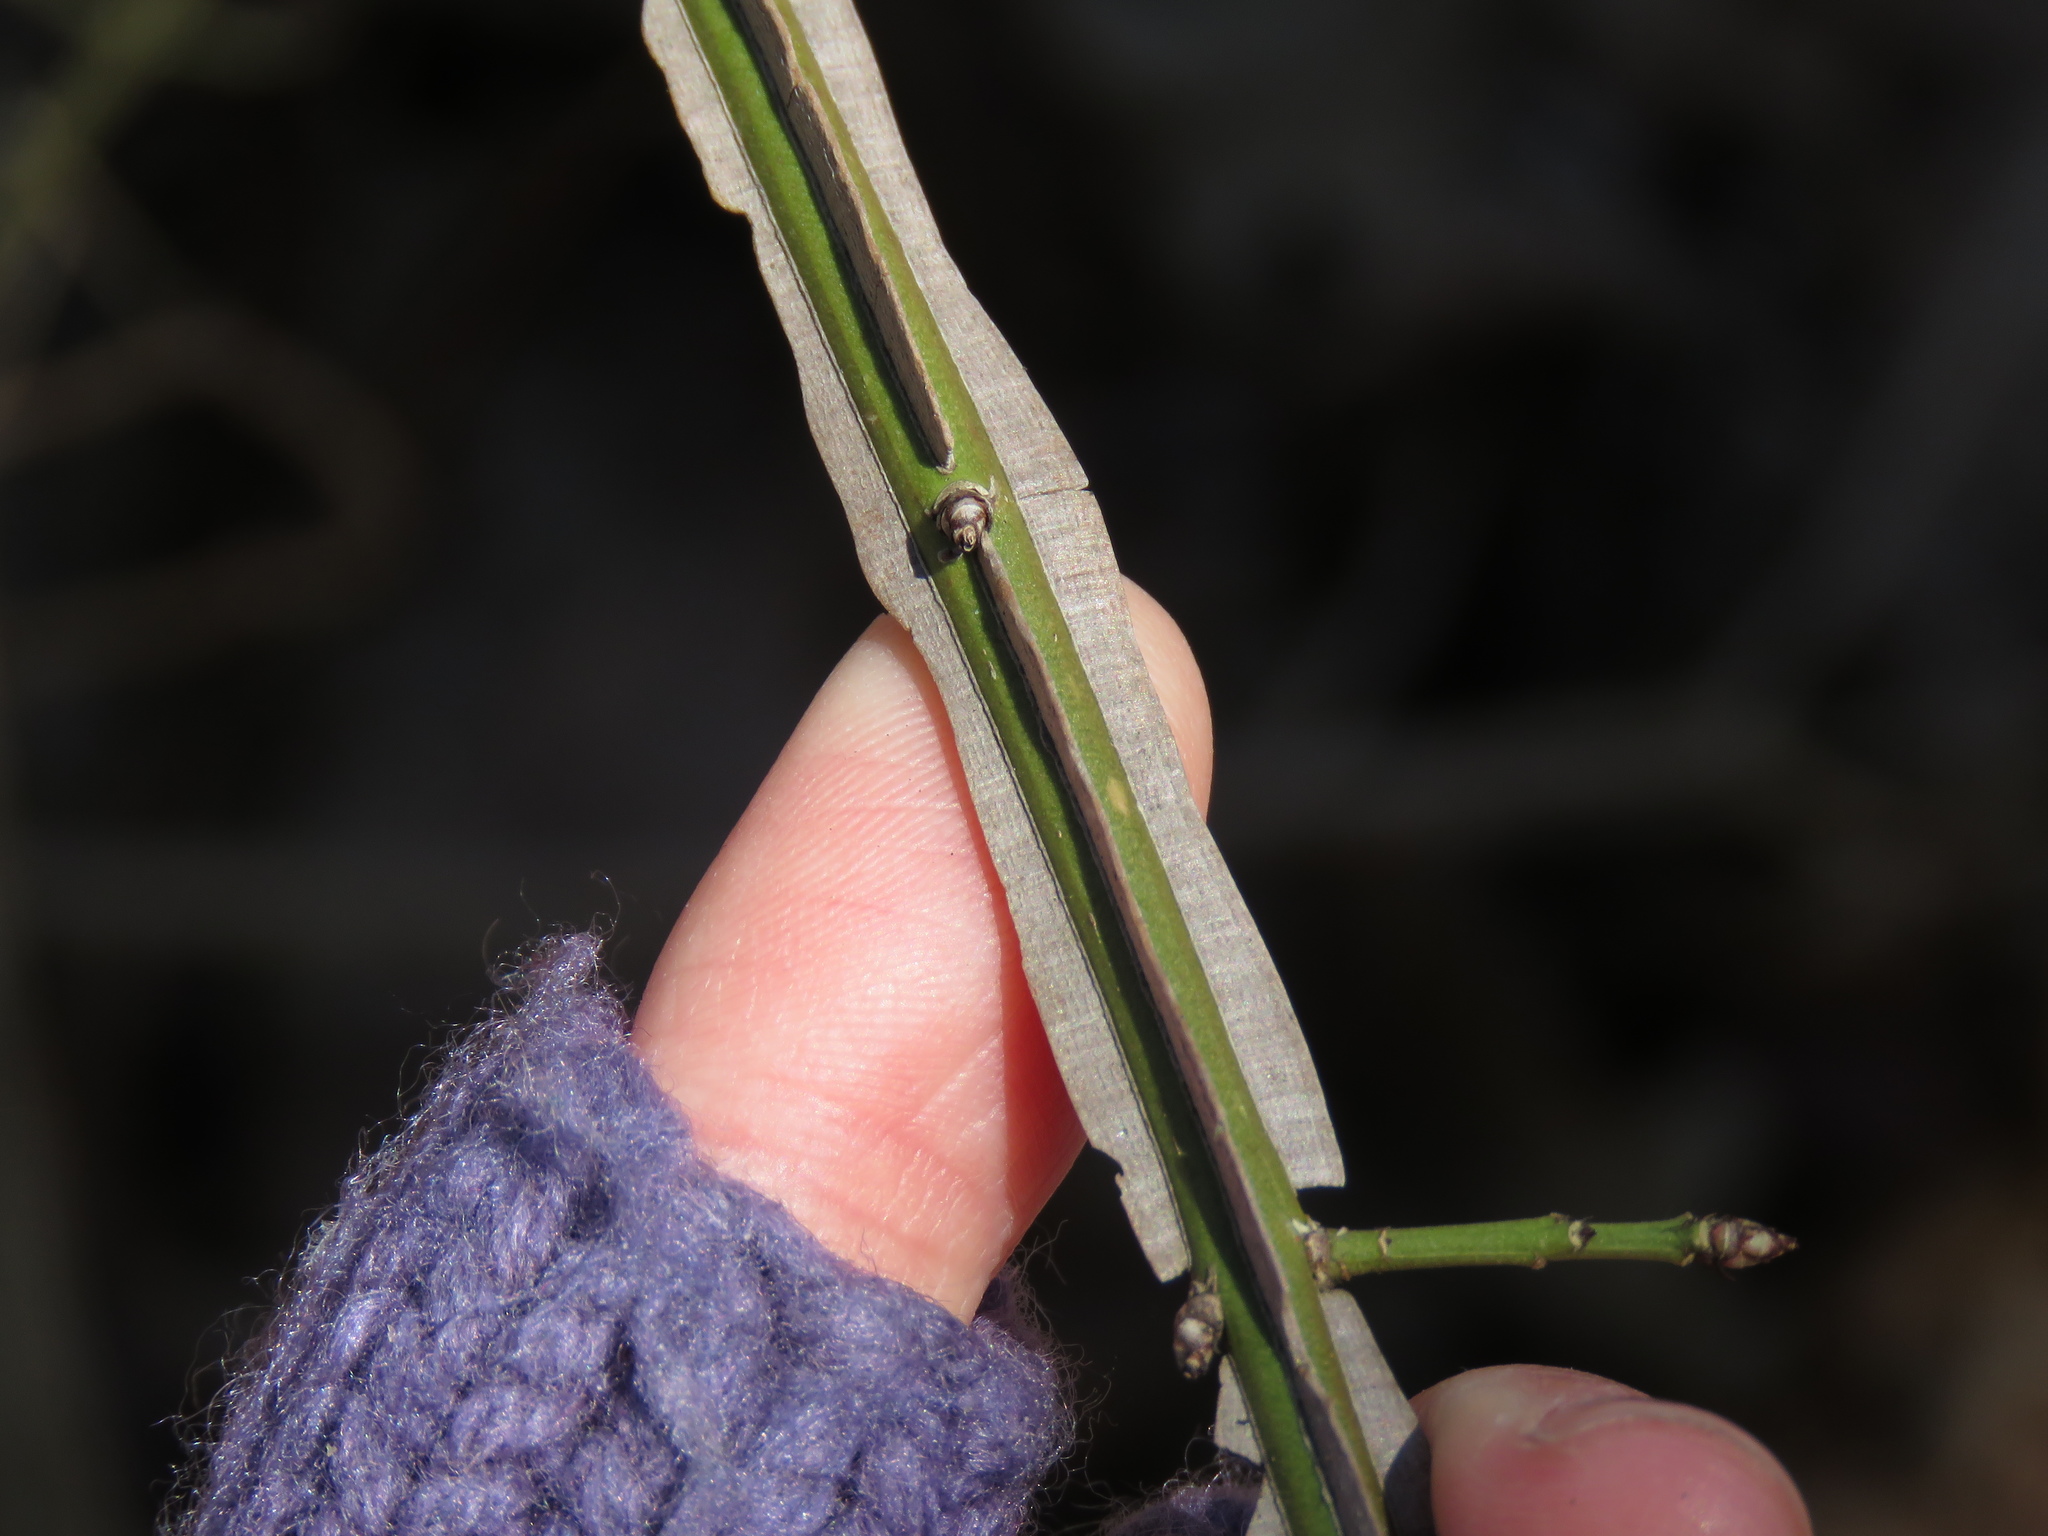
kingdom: Plantae
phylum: Tracheophyta
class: Magnoliopsida
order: Celastrales
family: Celastraceae
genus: Euonymus
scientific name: Euonymus alatus
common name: Winged euonymus
